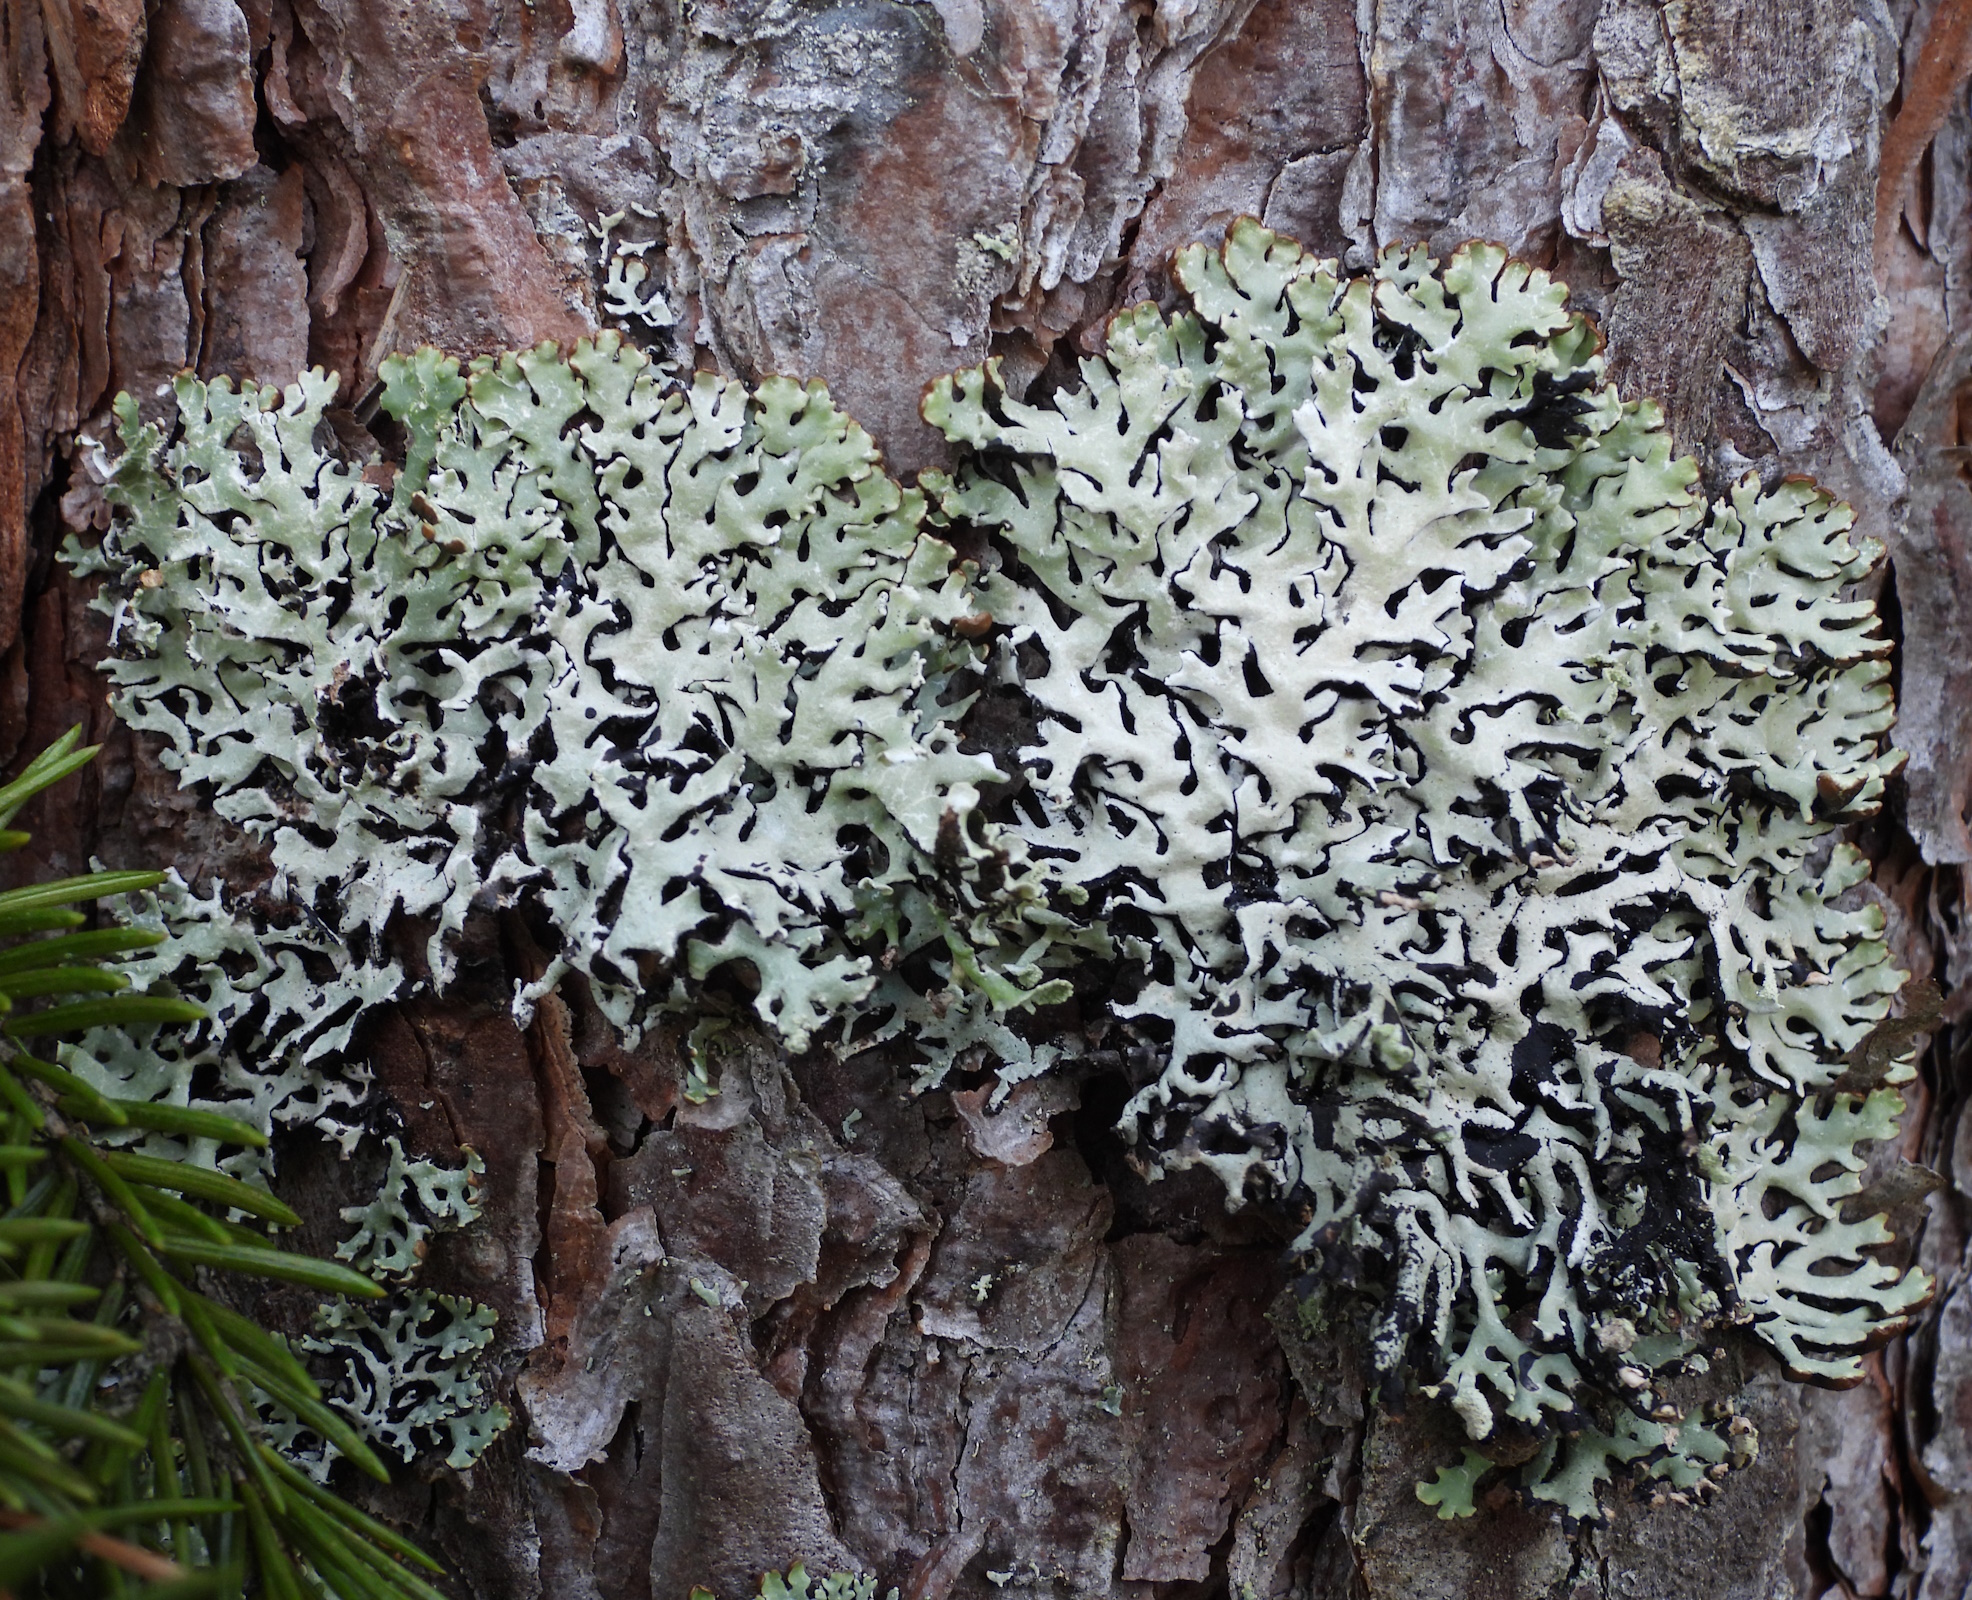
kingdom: Fungi
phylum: Ascomycota
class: Lecanoromycetes
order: Lecanorales
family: Parmeliaceae
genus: Hypogymnia
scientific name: Hypogymnia physodes
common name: Dark crottle
